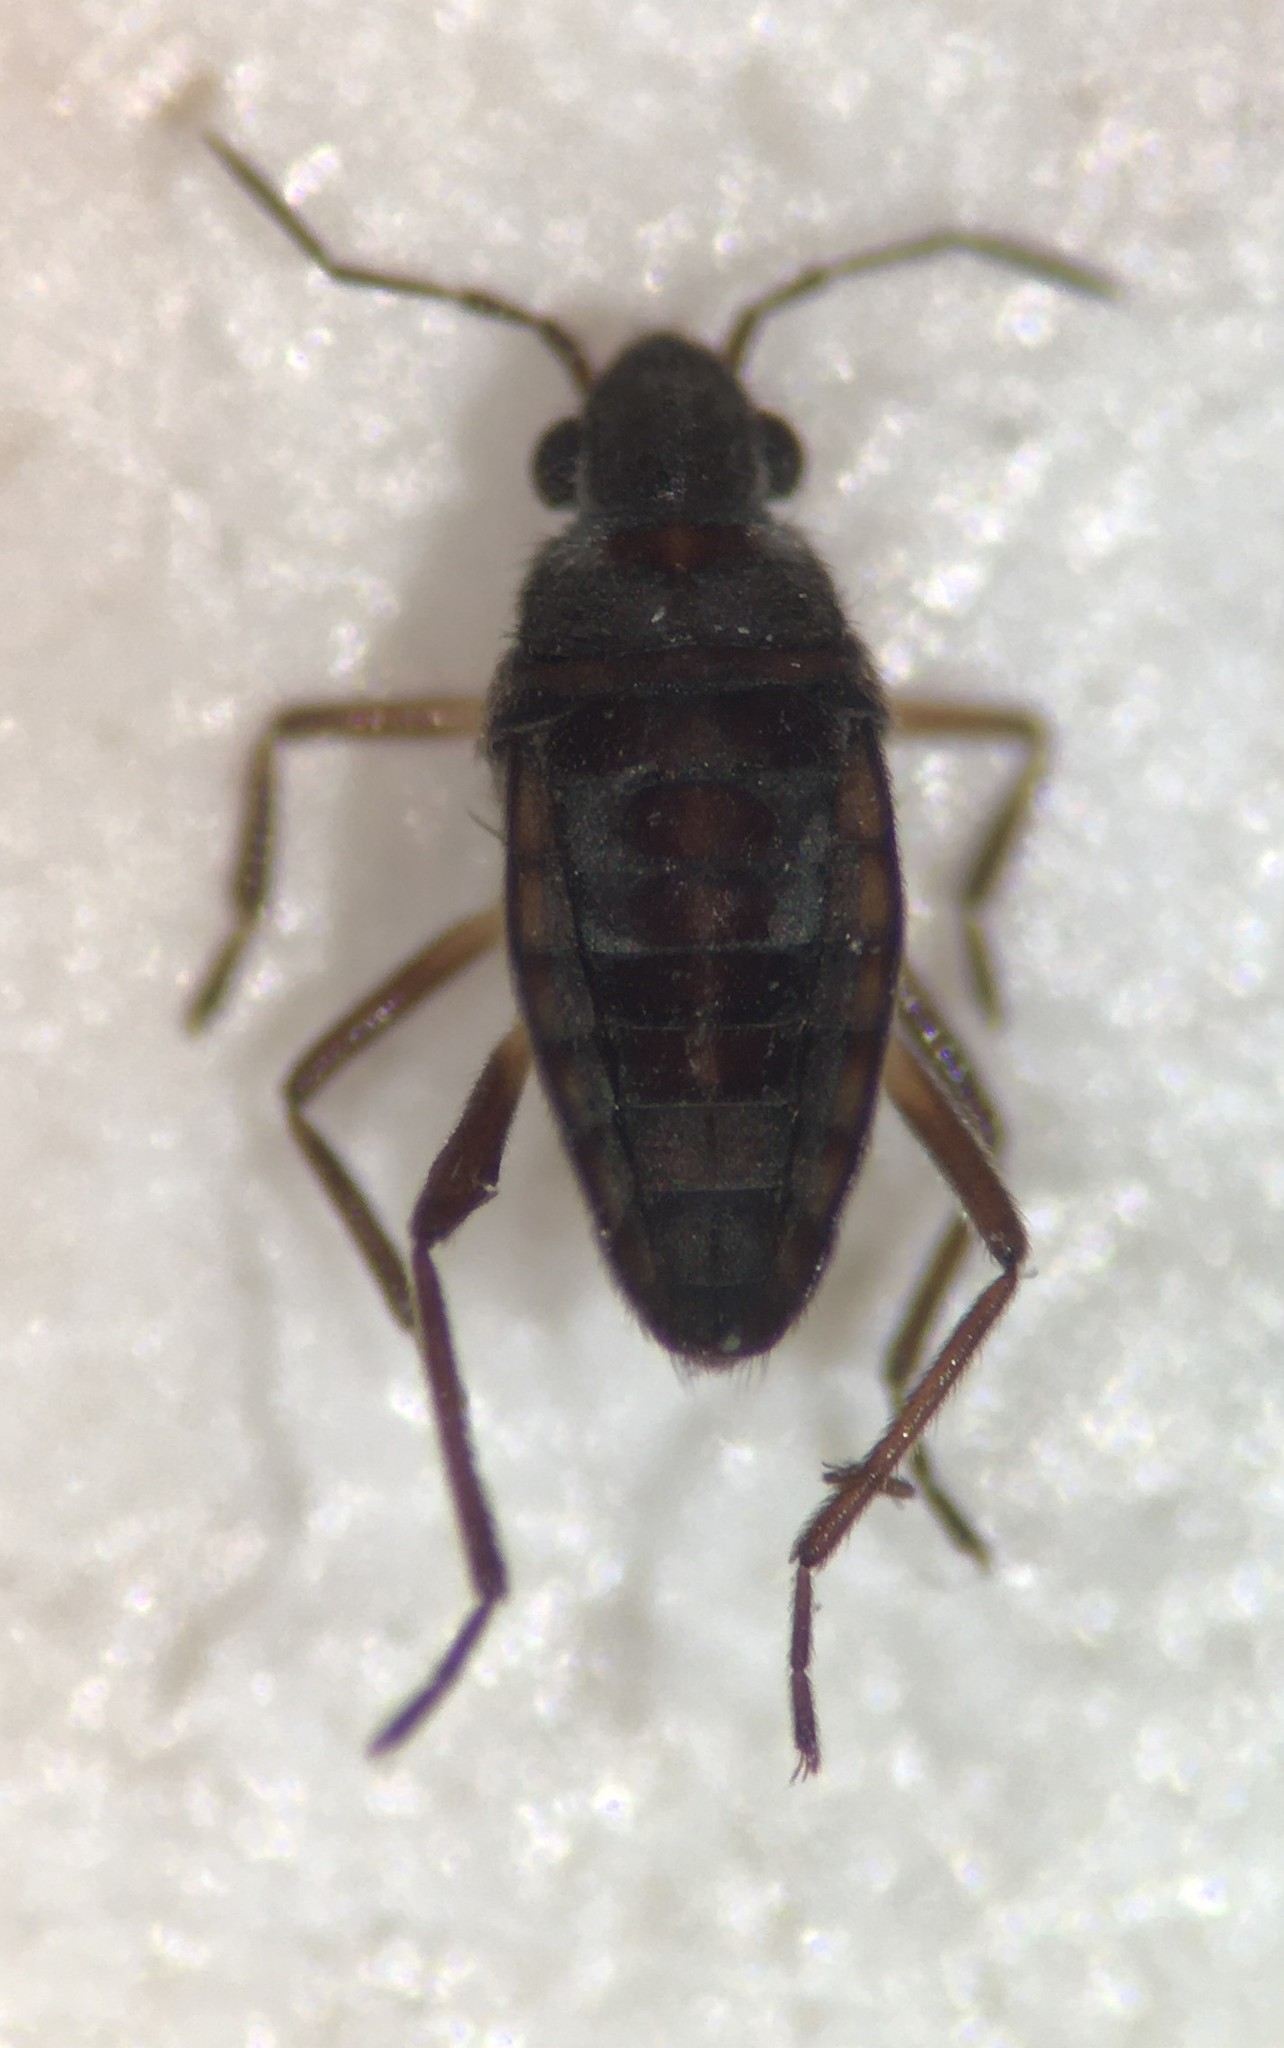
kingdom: Animalia
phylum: Arthropoda
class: Insecta
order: Hemiptera
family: Veliidae
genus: Microvelia
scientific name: Microvelia cubana
